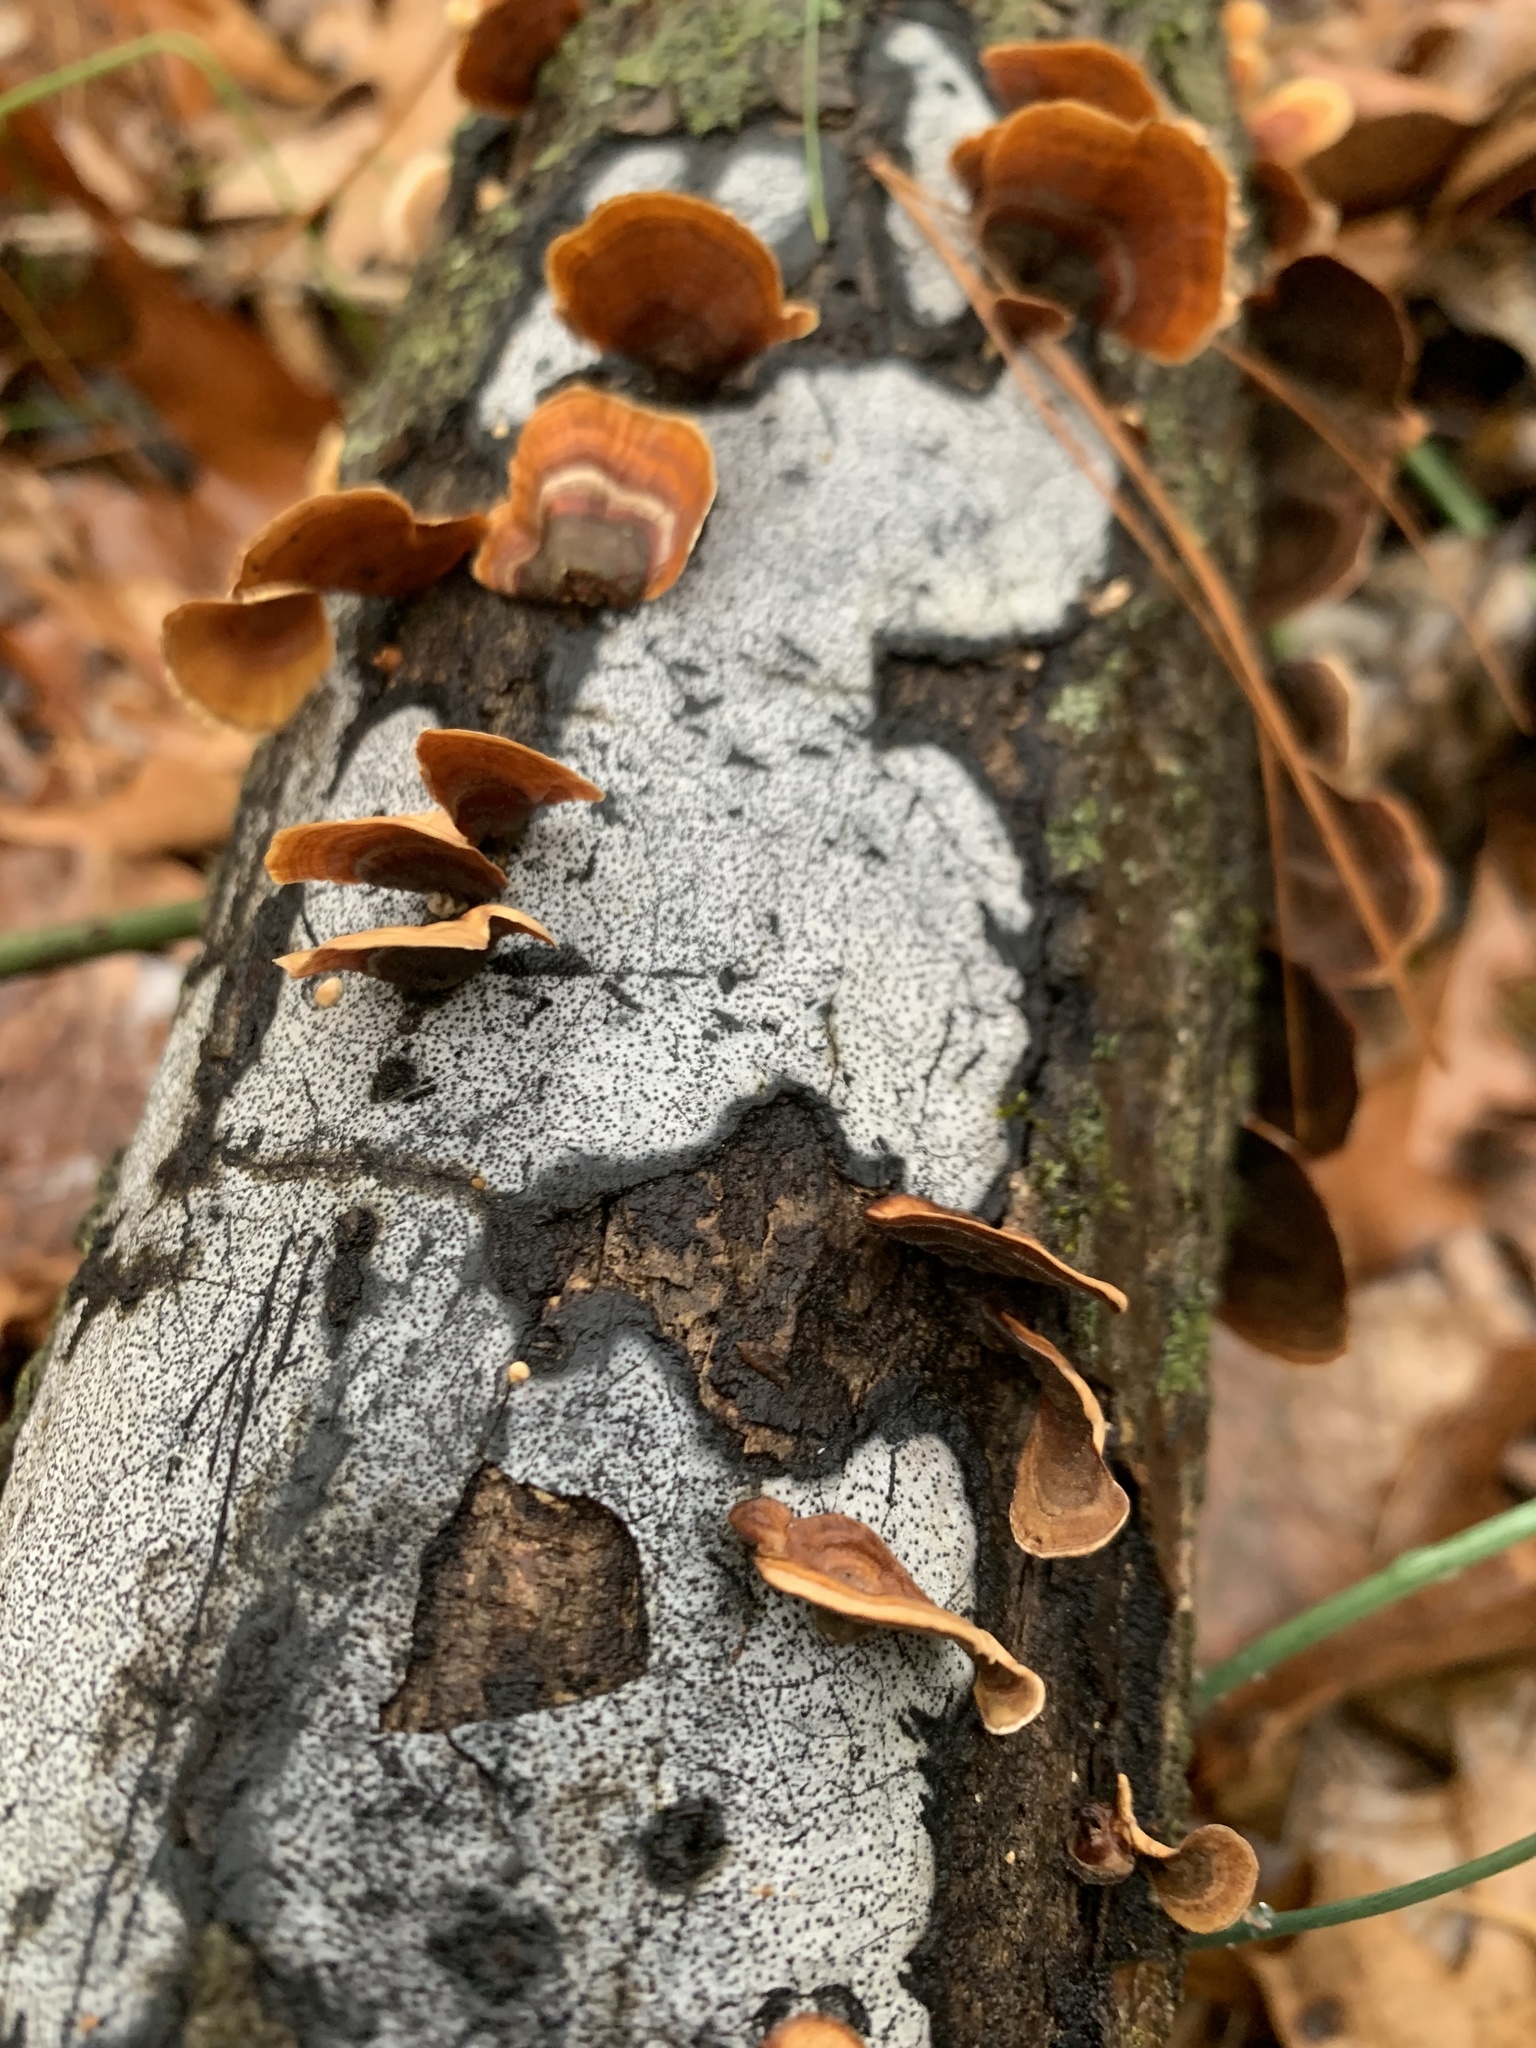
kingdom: Fungi
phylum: Ascomycota
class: Sordariomycetes
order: Xylariales
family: Graphostromataceae
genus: Biscogniauxia
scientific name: Biscogniauxia atropunctata
